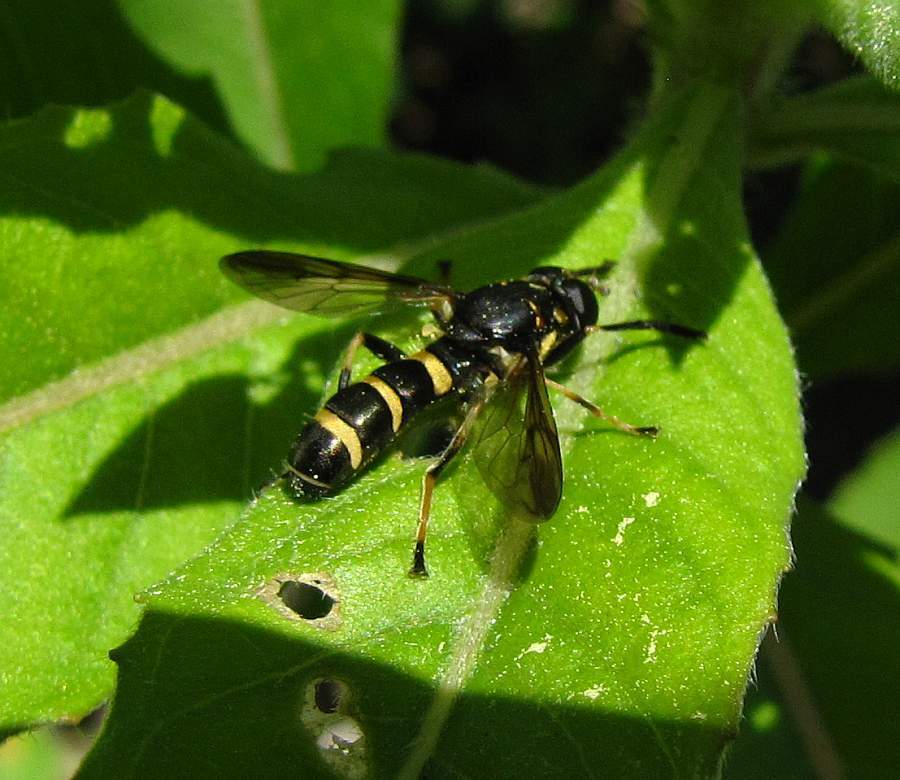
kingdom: Animalia
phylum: Arthropoda
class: Insecta
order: Diptera
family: Syrphidae
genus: Temnostoma
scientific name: Temnostoma
